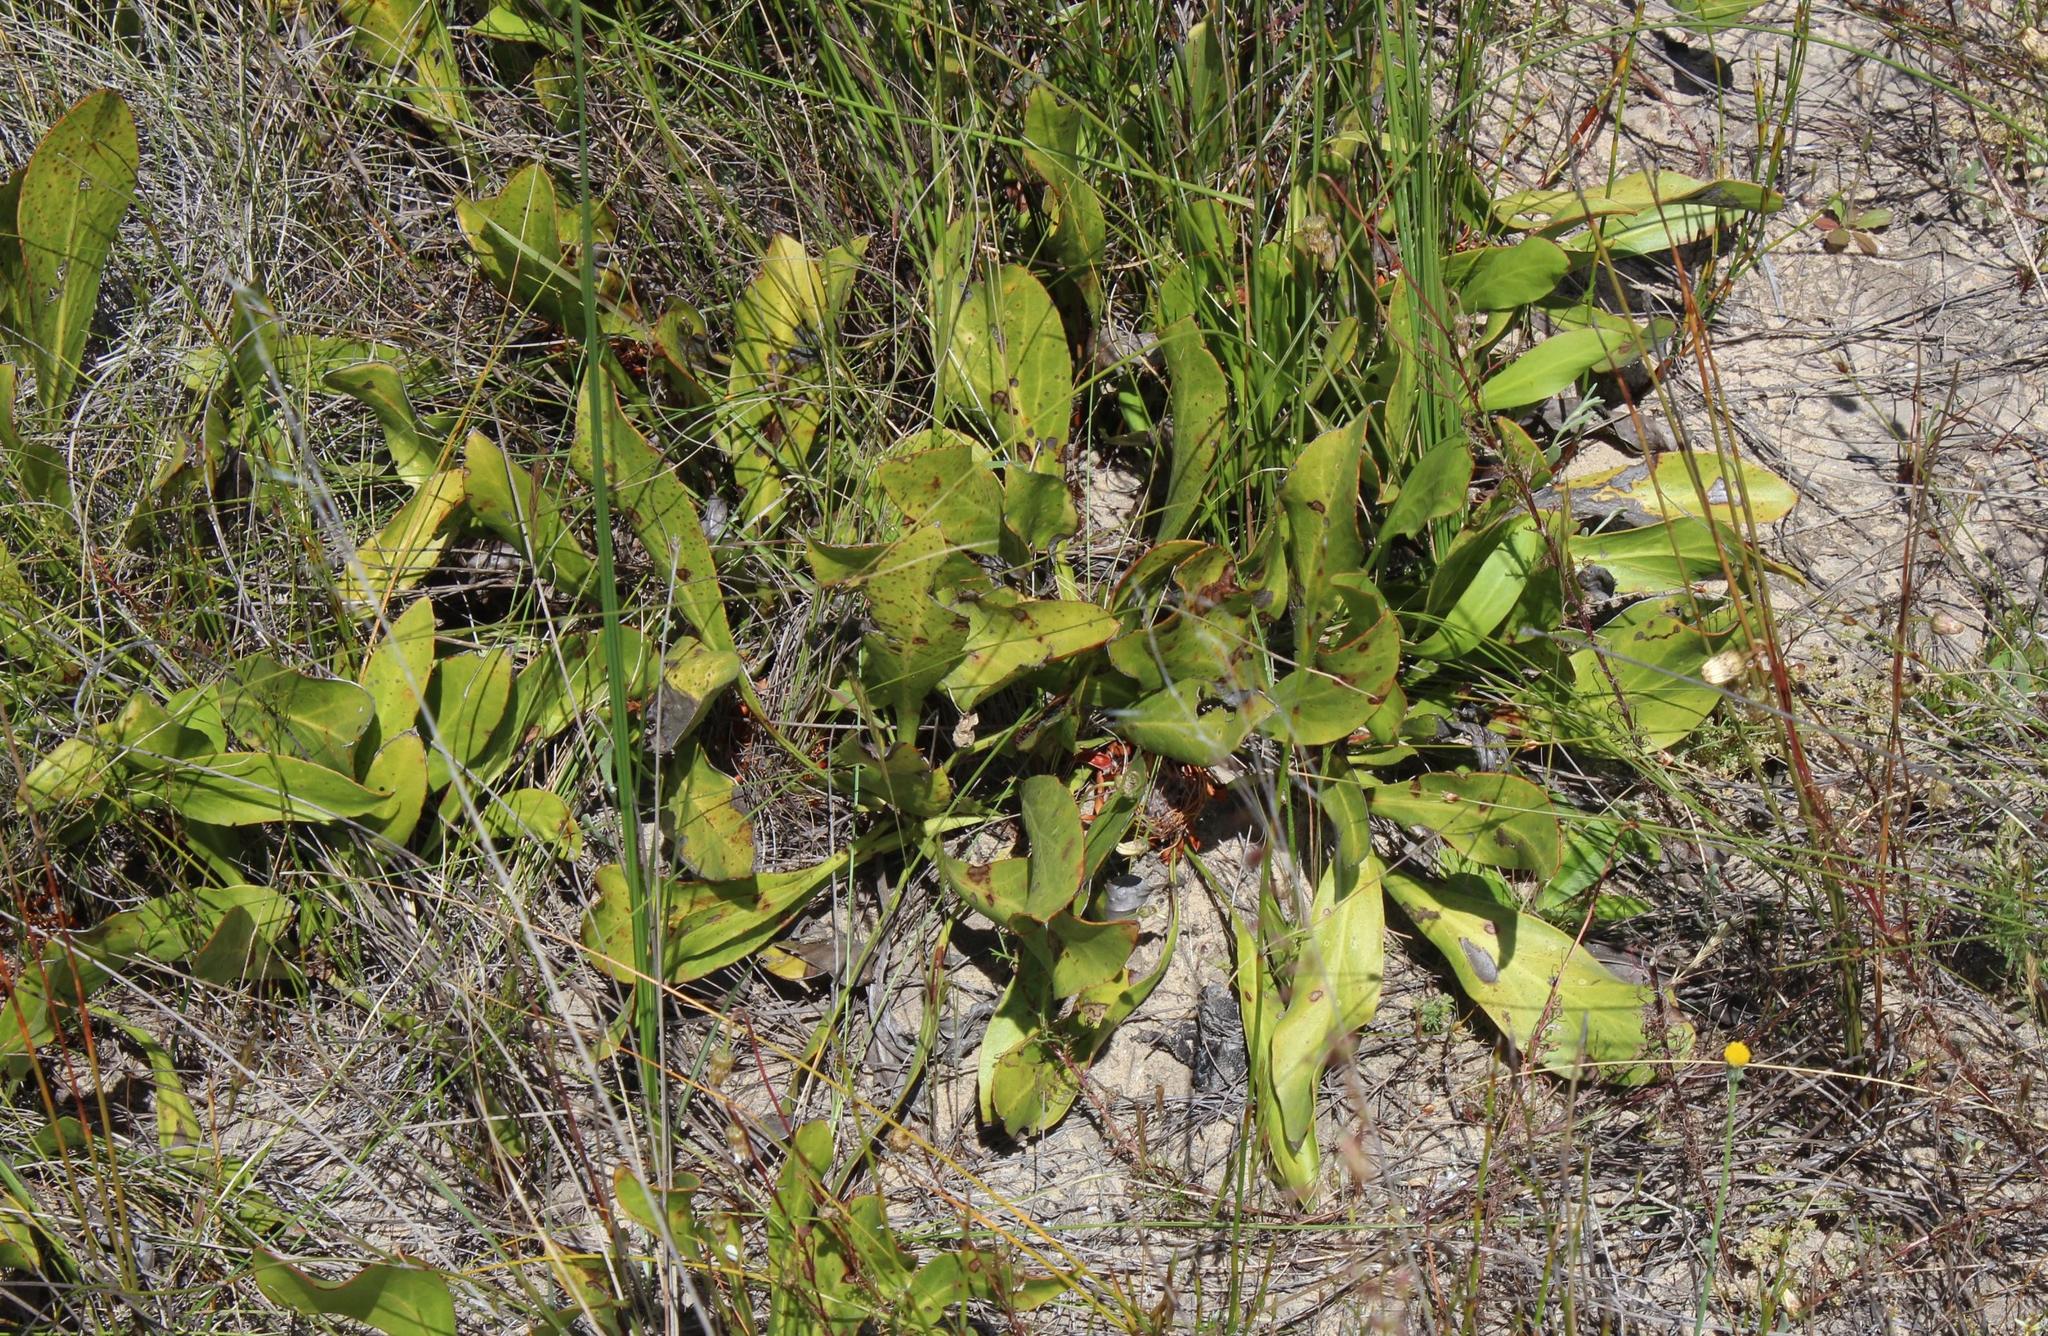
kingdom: Plantae
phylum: Tracheophyta
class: Magnoliopsida
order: Proteales
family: Proteaceae
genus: Protea
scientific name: Protea acaulos
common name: Common ground sugarbush
